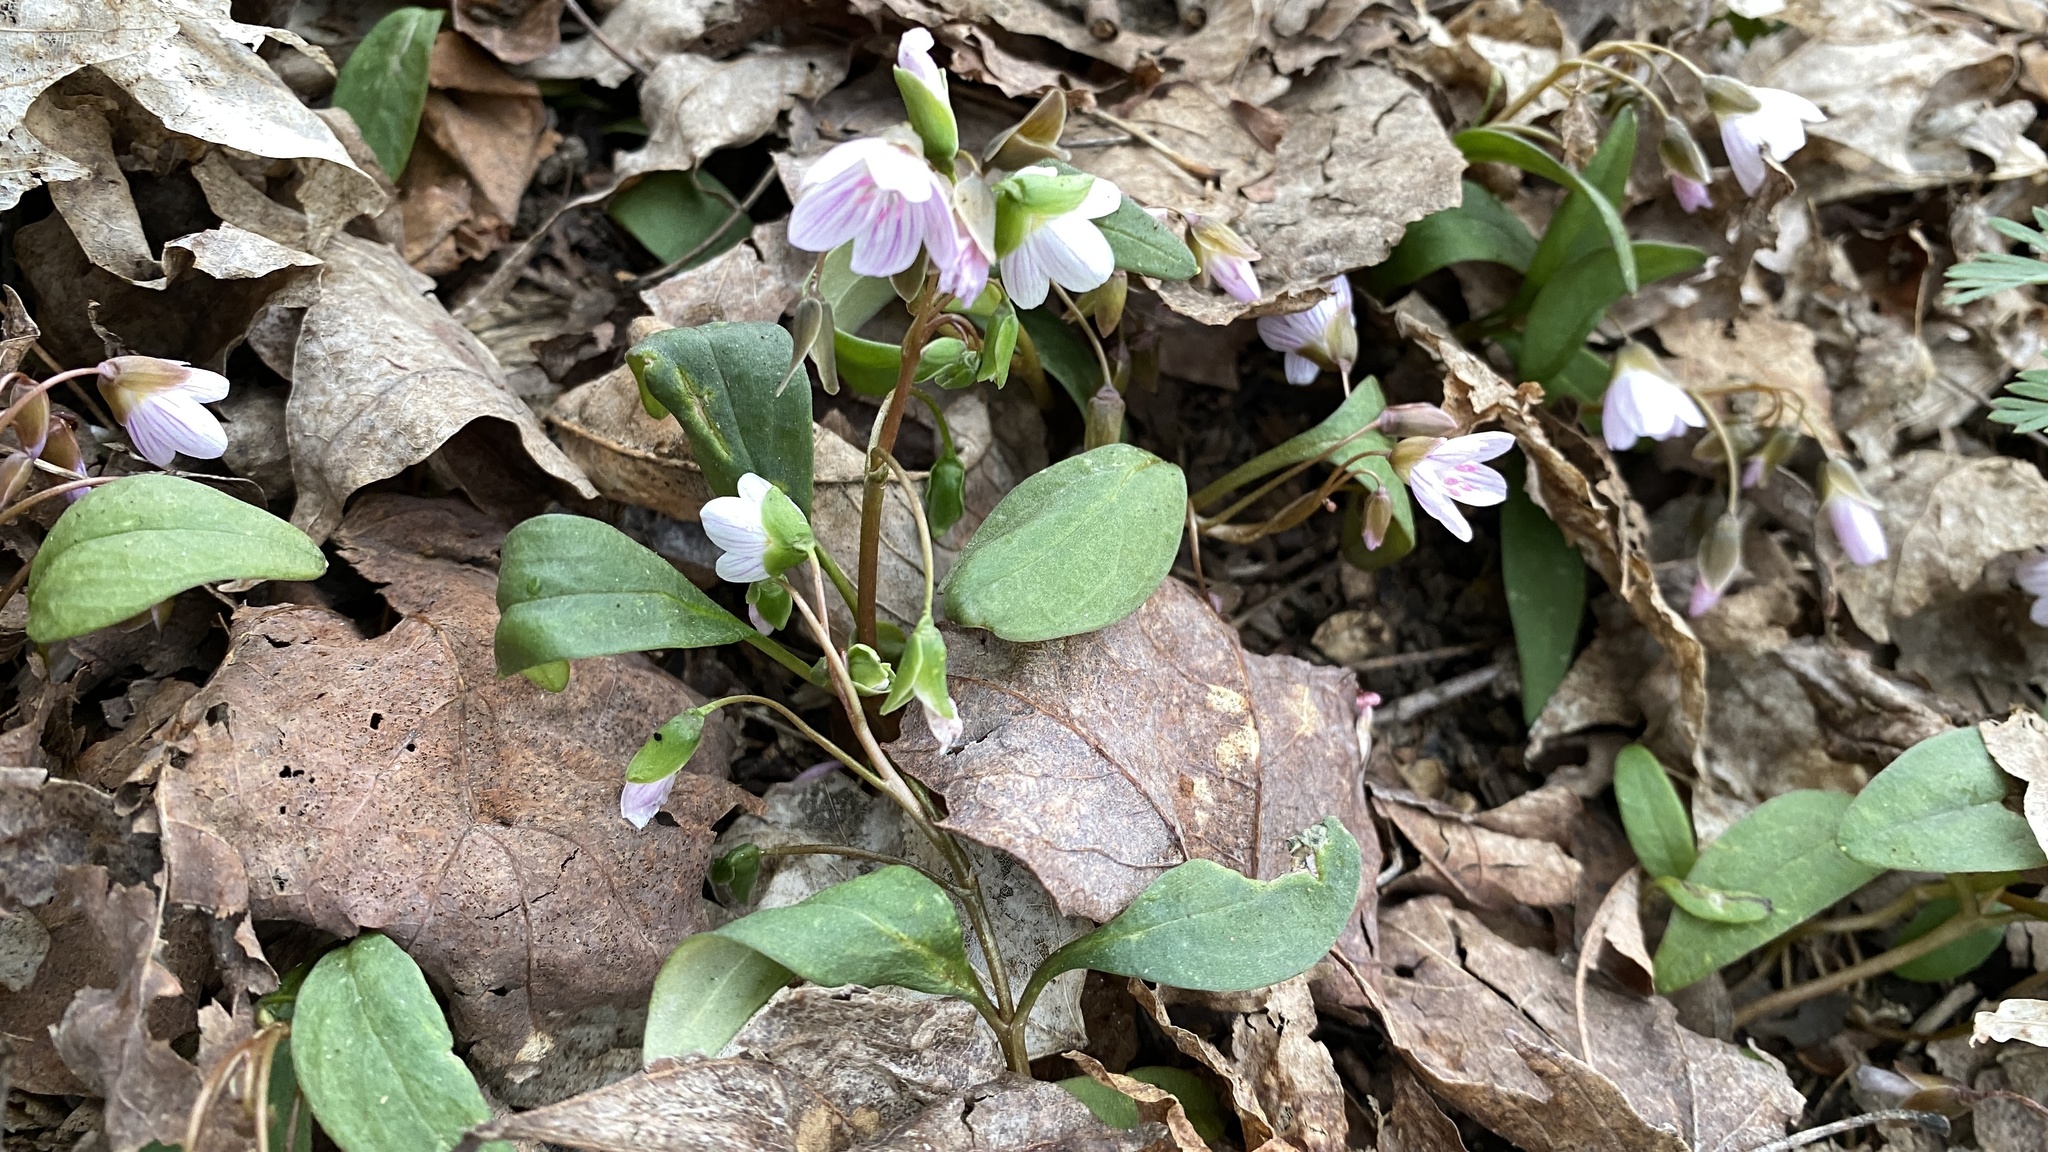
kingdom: Plantae
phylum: Tracheophyta
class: Magnoliopsida
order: Caryophyllales
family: Montiaceae
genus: Claytonia
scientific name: Claytonia caroliniana
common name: Carolina spring beauty
